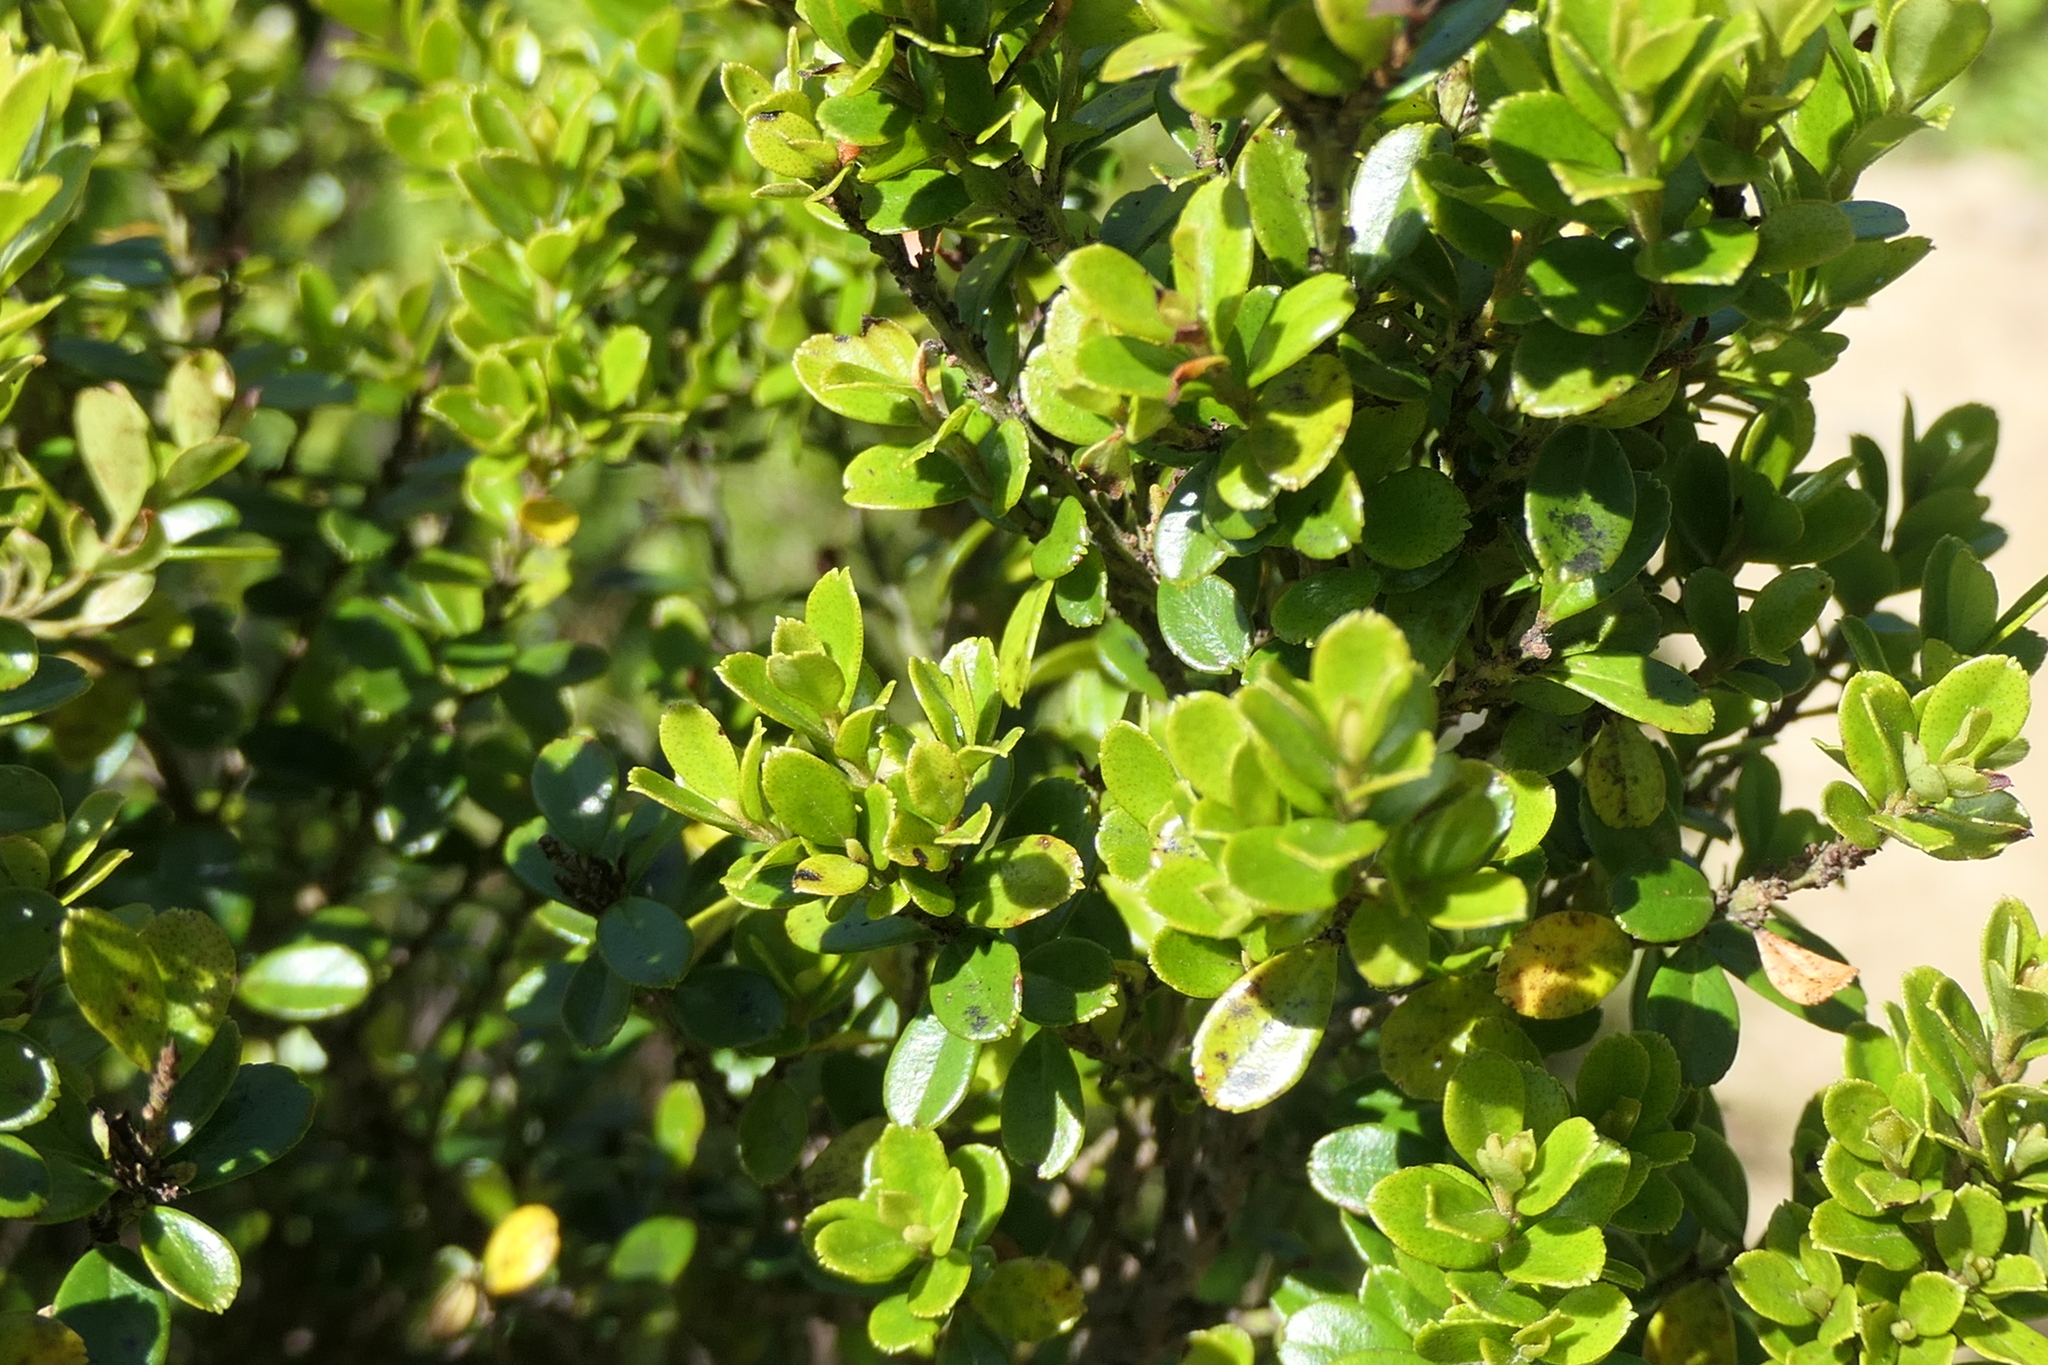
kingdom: Plantae
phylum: Tracheophyta
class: Magnoliopsida
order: Ericales
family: Primulaceae
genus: Myrsine
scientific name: Myrsine africana
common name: African-boxwood
